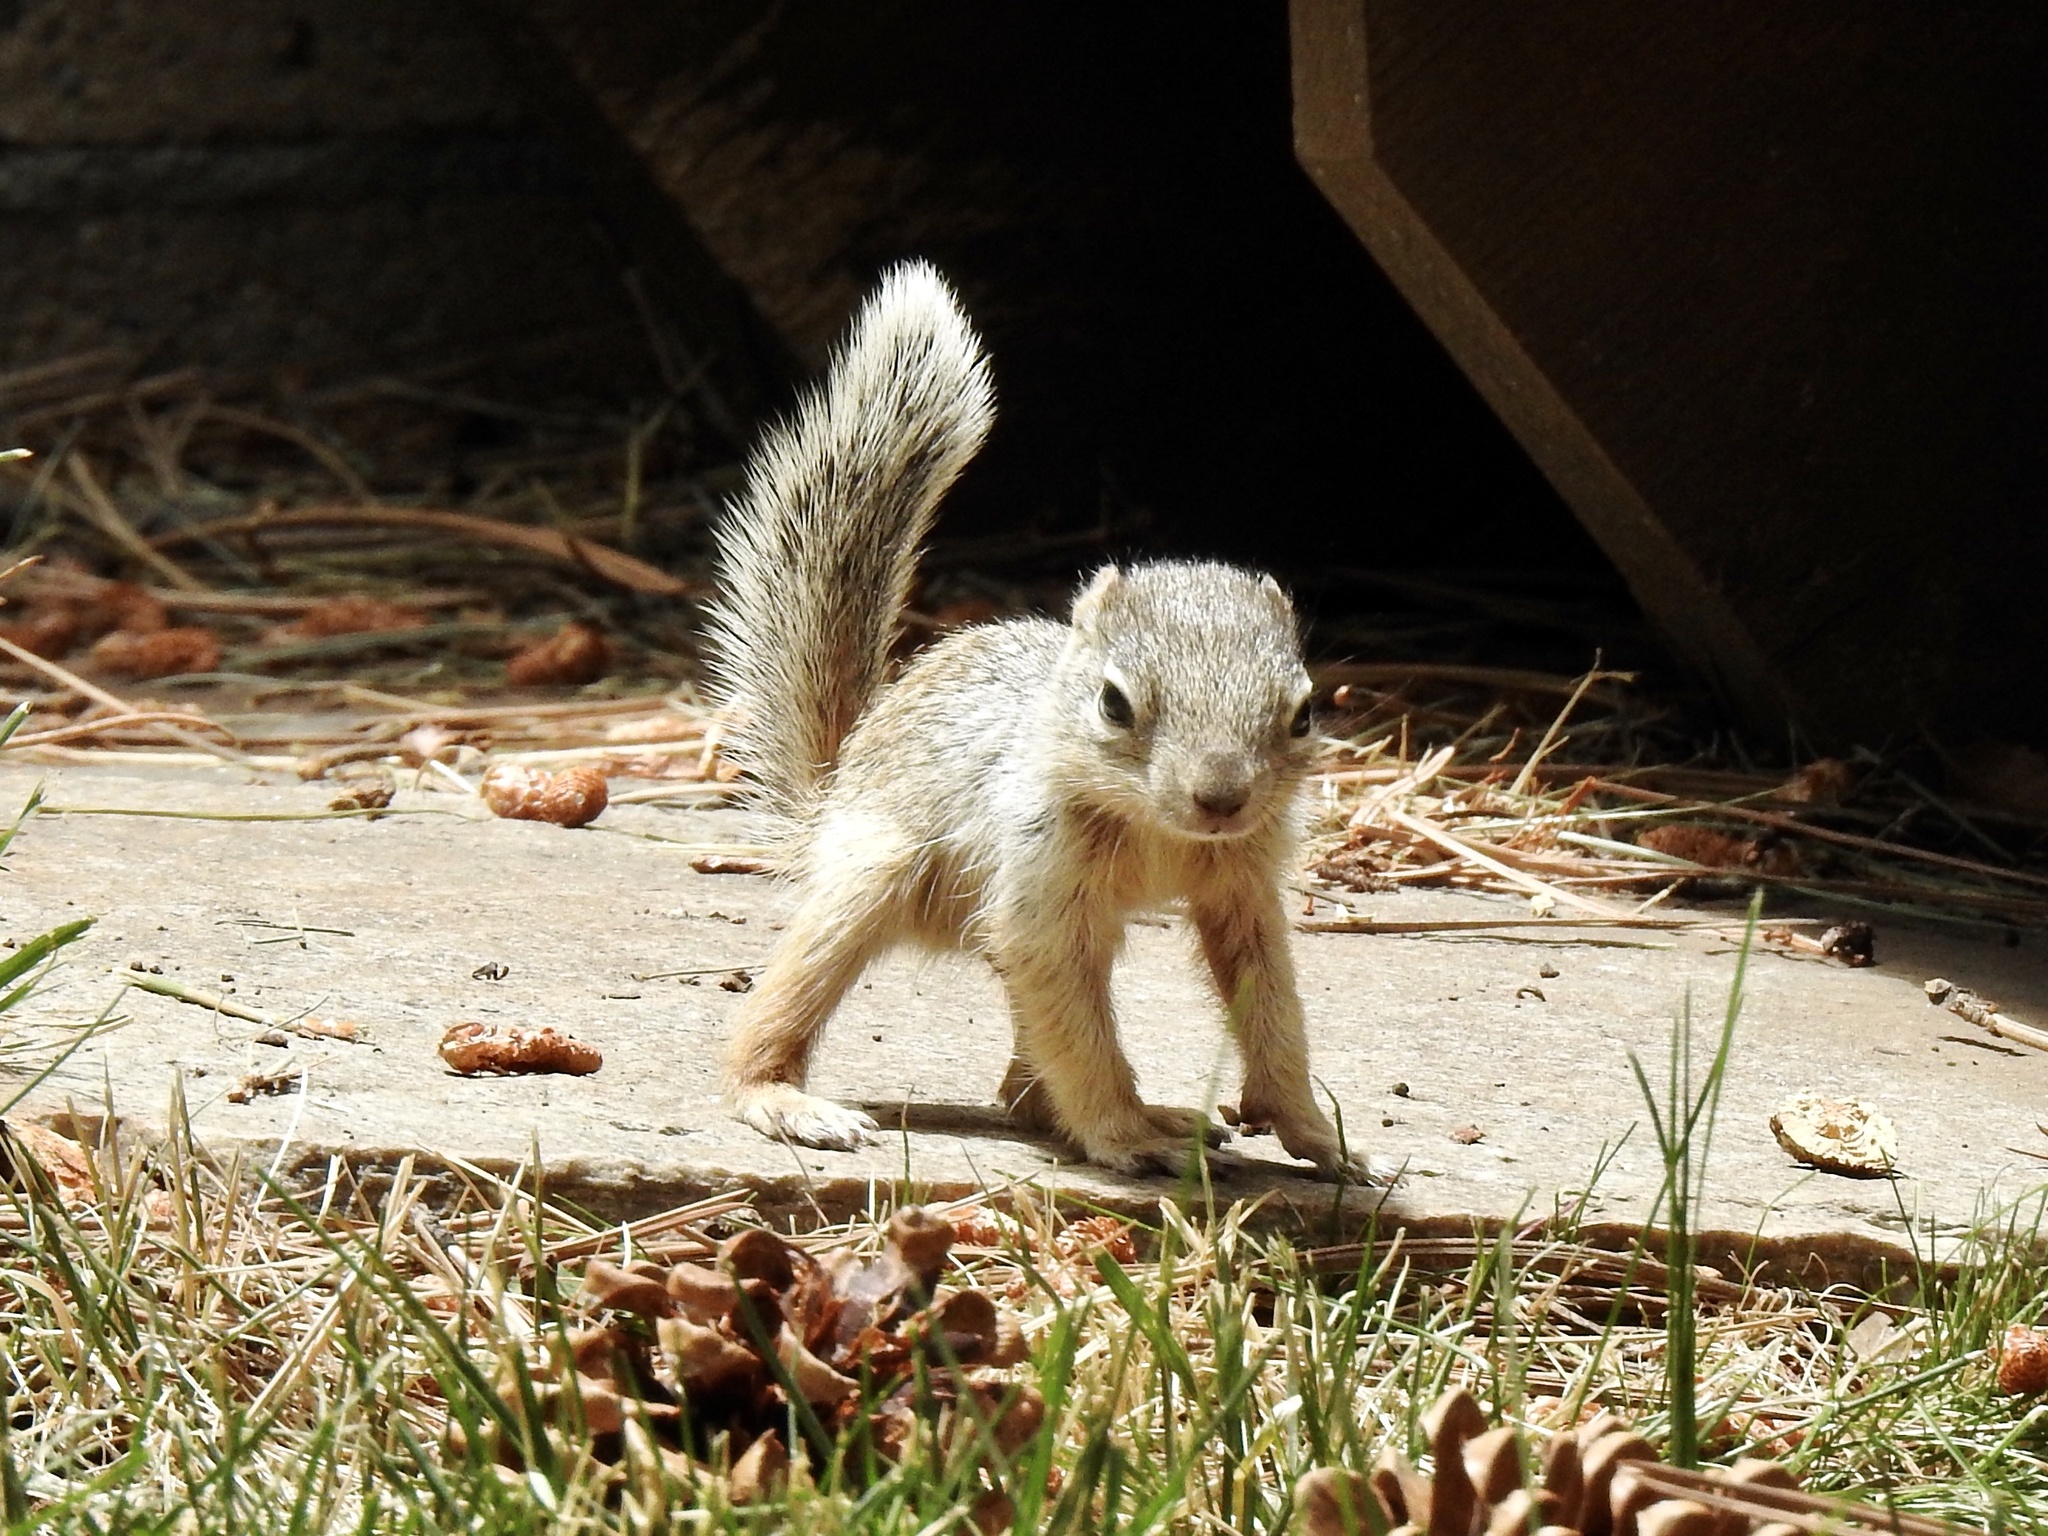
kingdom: Animalia
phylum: Chordata
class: Mammalia
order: Rodentia
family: Sciuridae
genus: Otospermophilus
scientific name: Otospermophilus variegatus
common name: Rock squirrel
